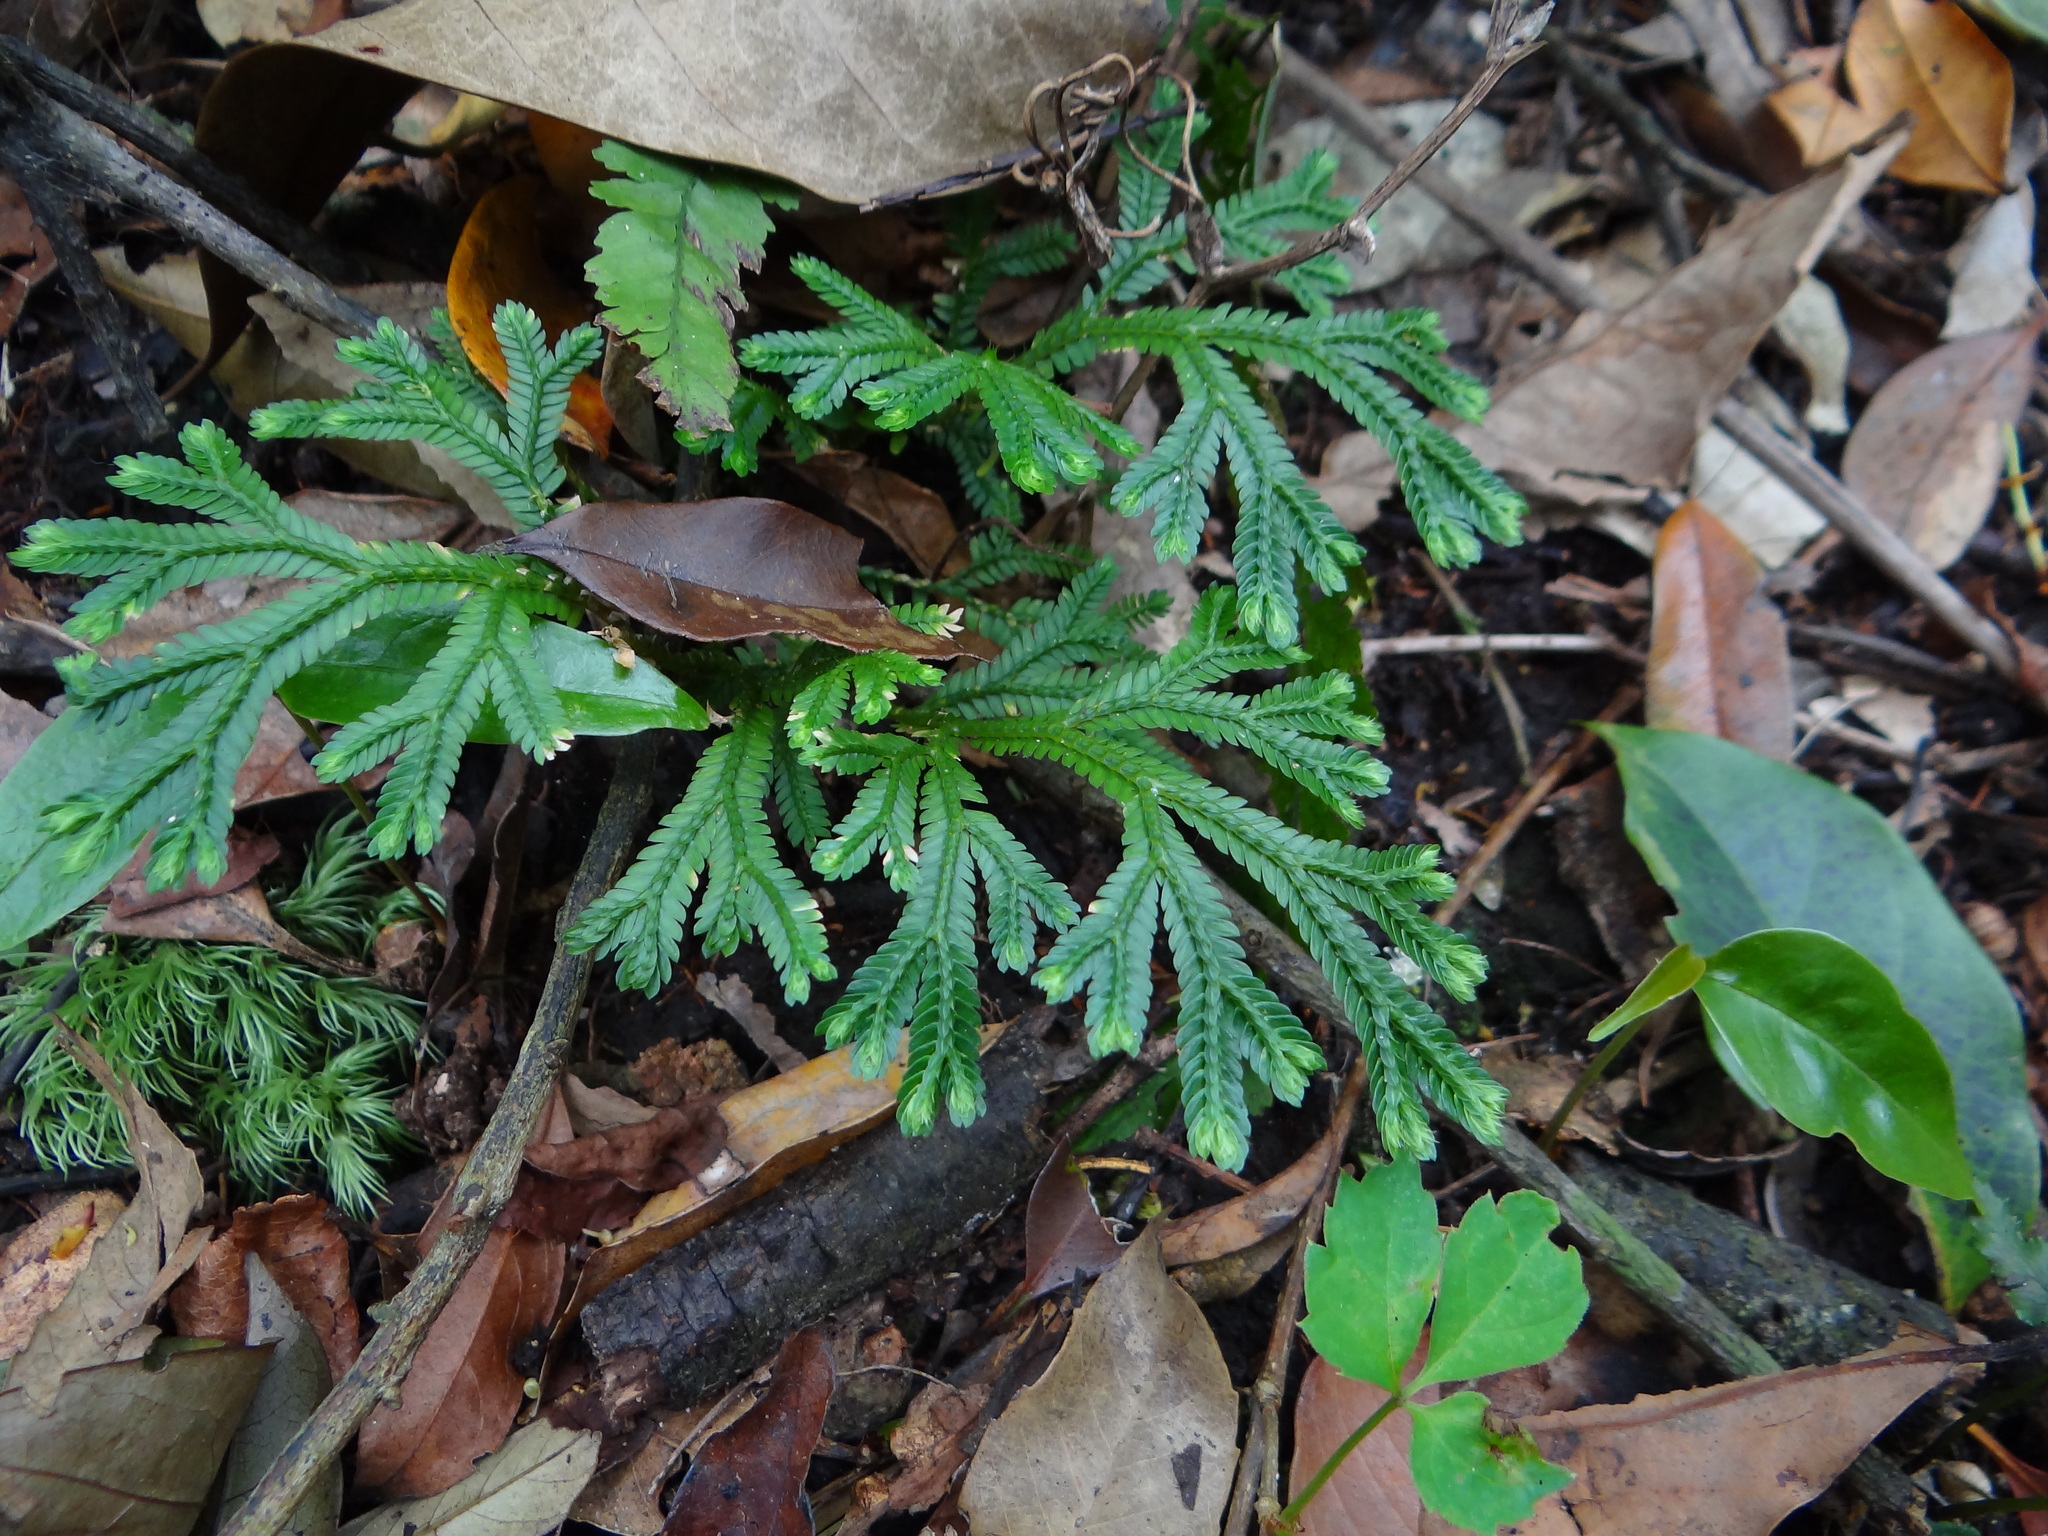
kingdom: Plantae
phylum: Tracheophyta
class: Lycopodiopsida
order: Selaginellales
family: Selaginellaceae
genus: Selaginella
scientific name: Selaginella doederleinii
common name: Greater selaginella
